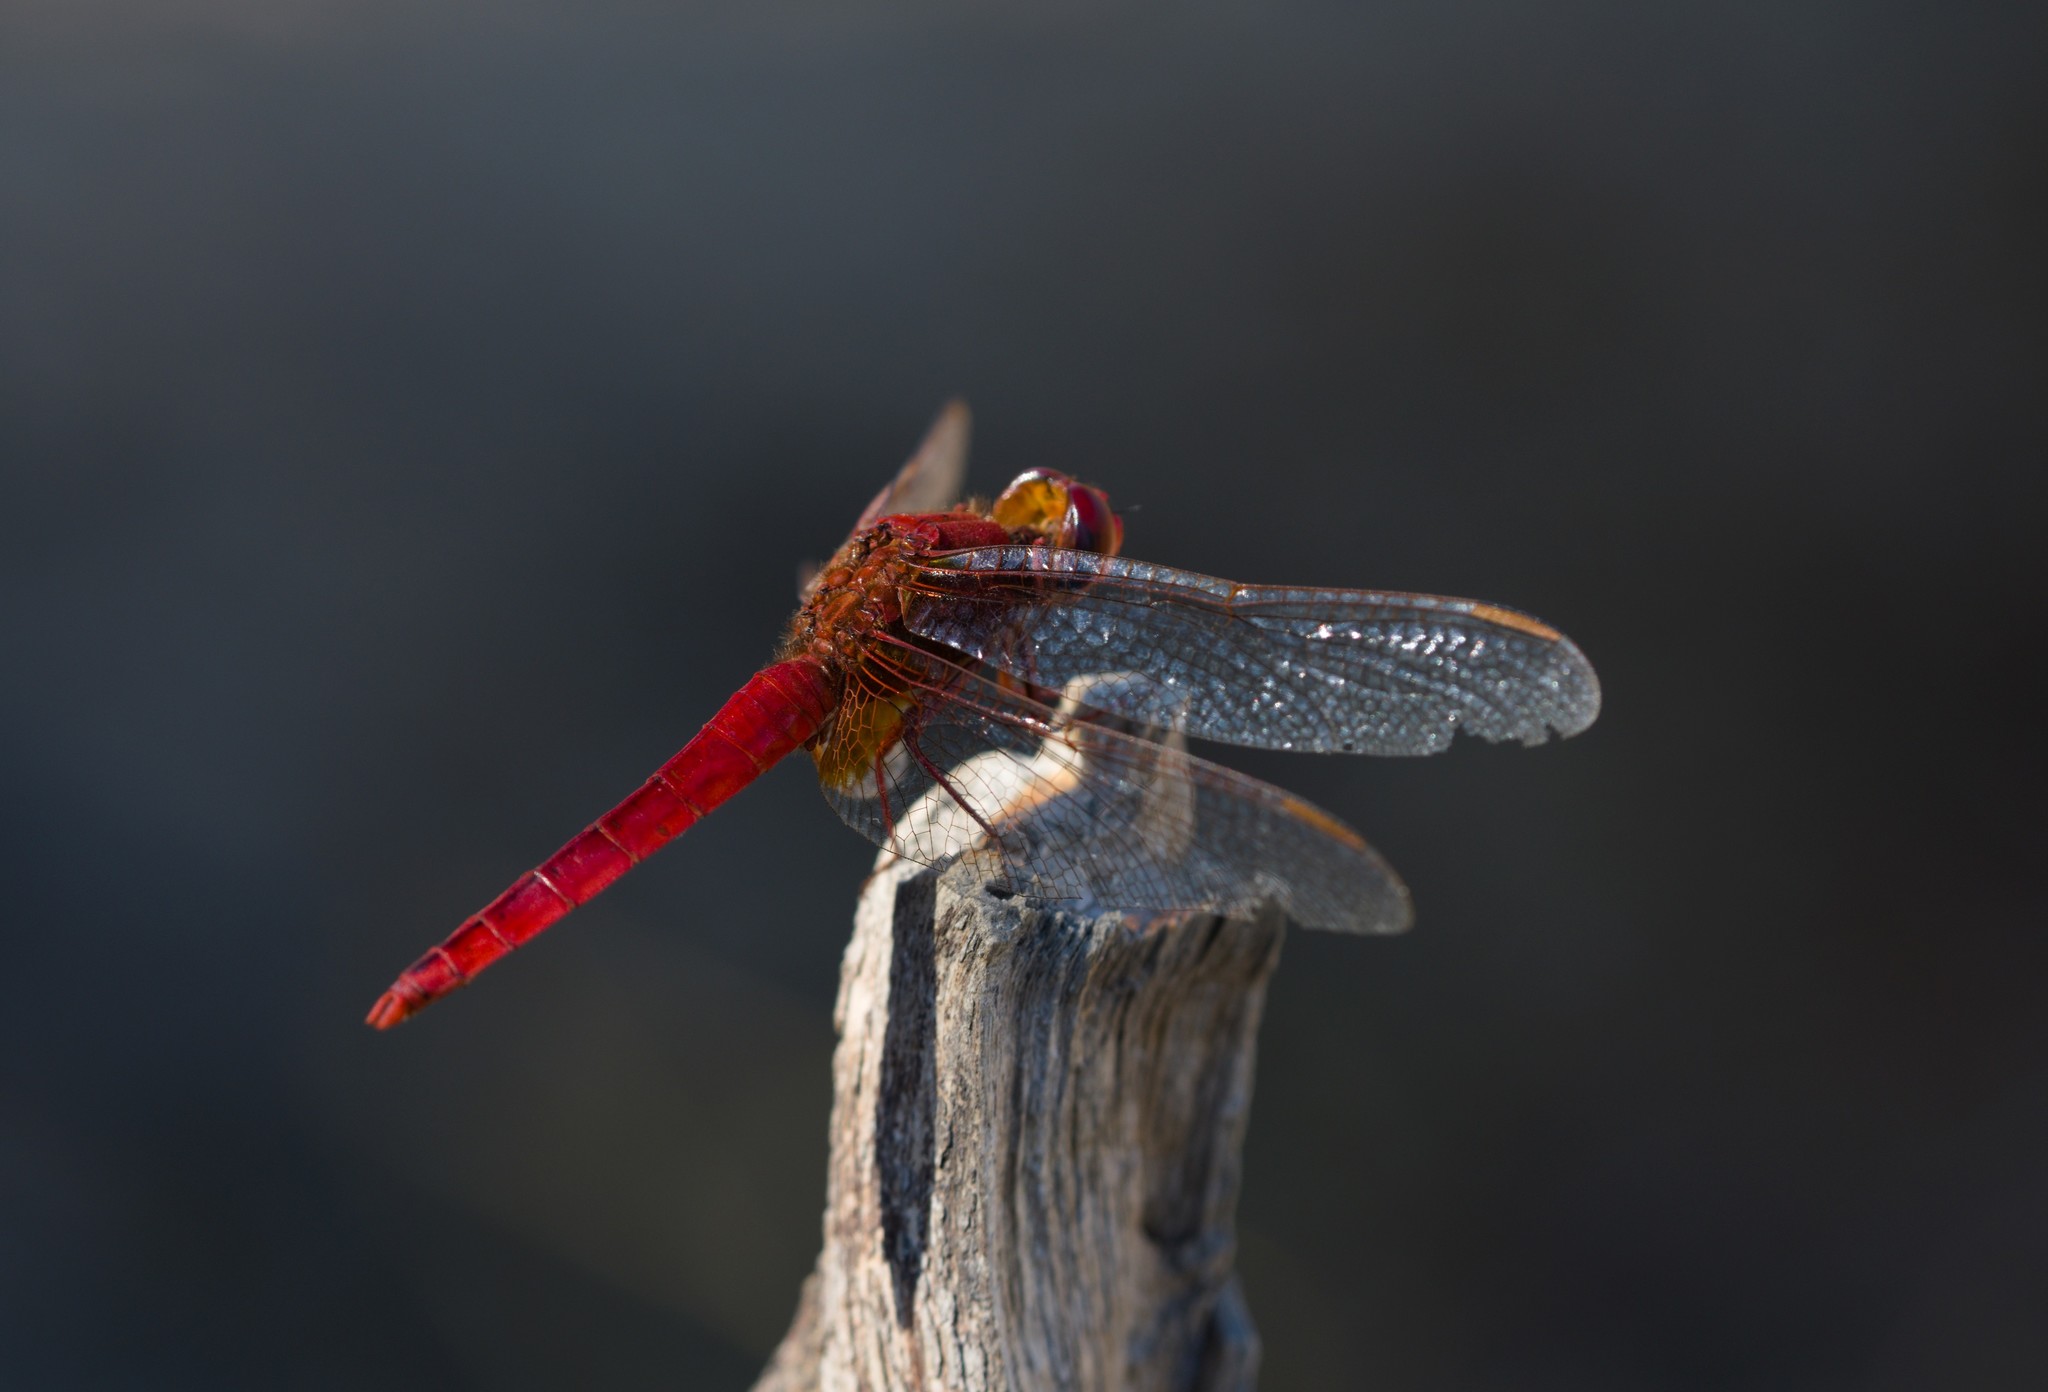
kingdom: Animalia
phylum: Arthropoda
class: Insecta
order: Odonata
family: Libellulidae
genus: Crocothemis
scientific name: Crocothemis erythraea
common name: Scarlet dragonfly
